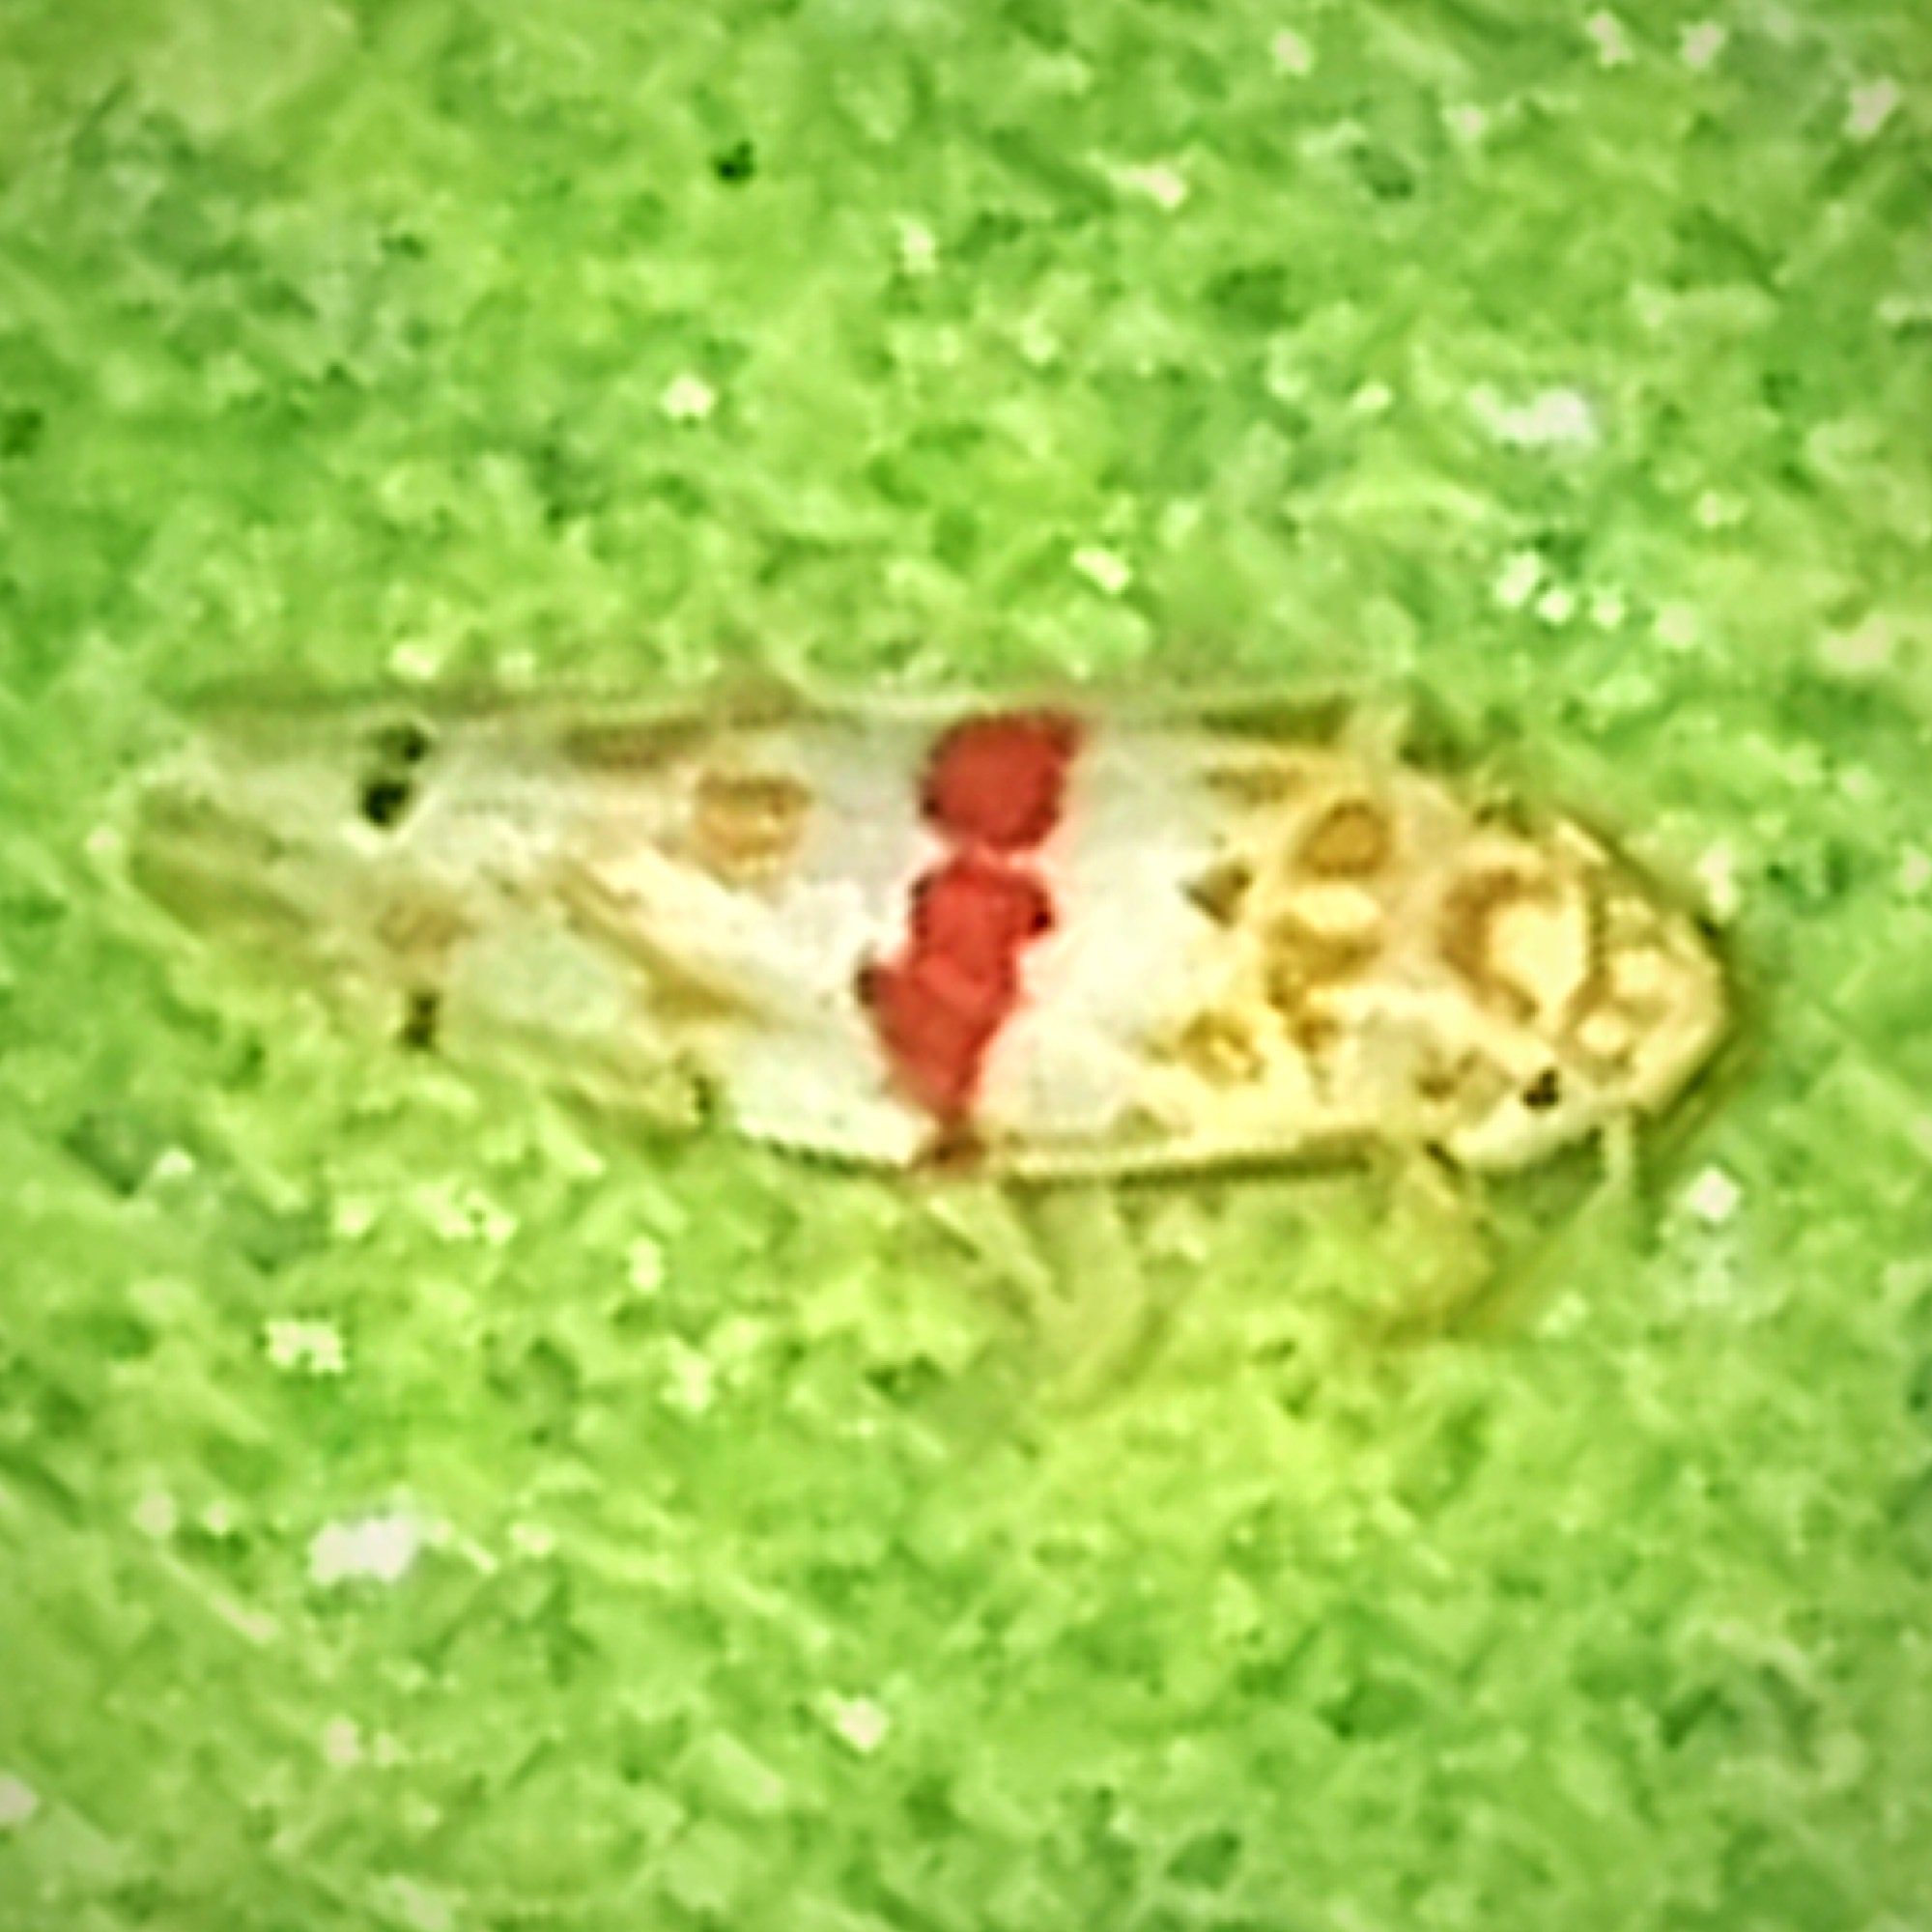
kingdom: Animalia
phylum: Arthropoda
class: Insecta
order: Hemiptera
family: Cicadellidae
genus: Eratoneura
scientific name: Eratoneura era
